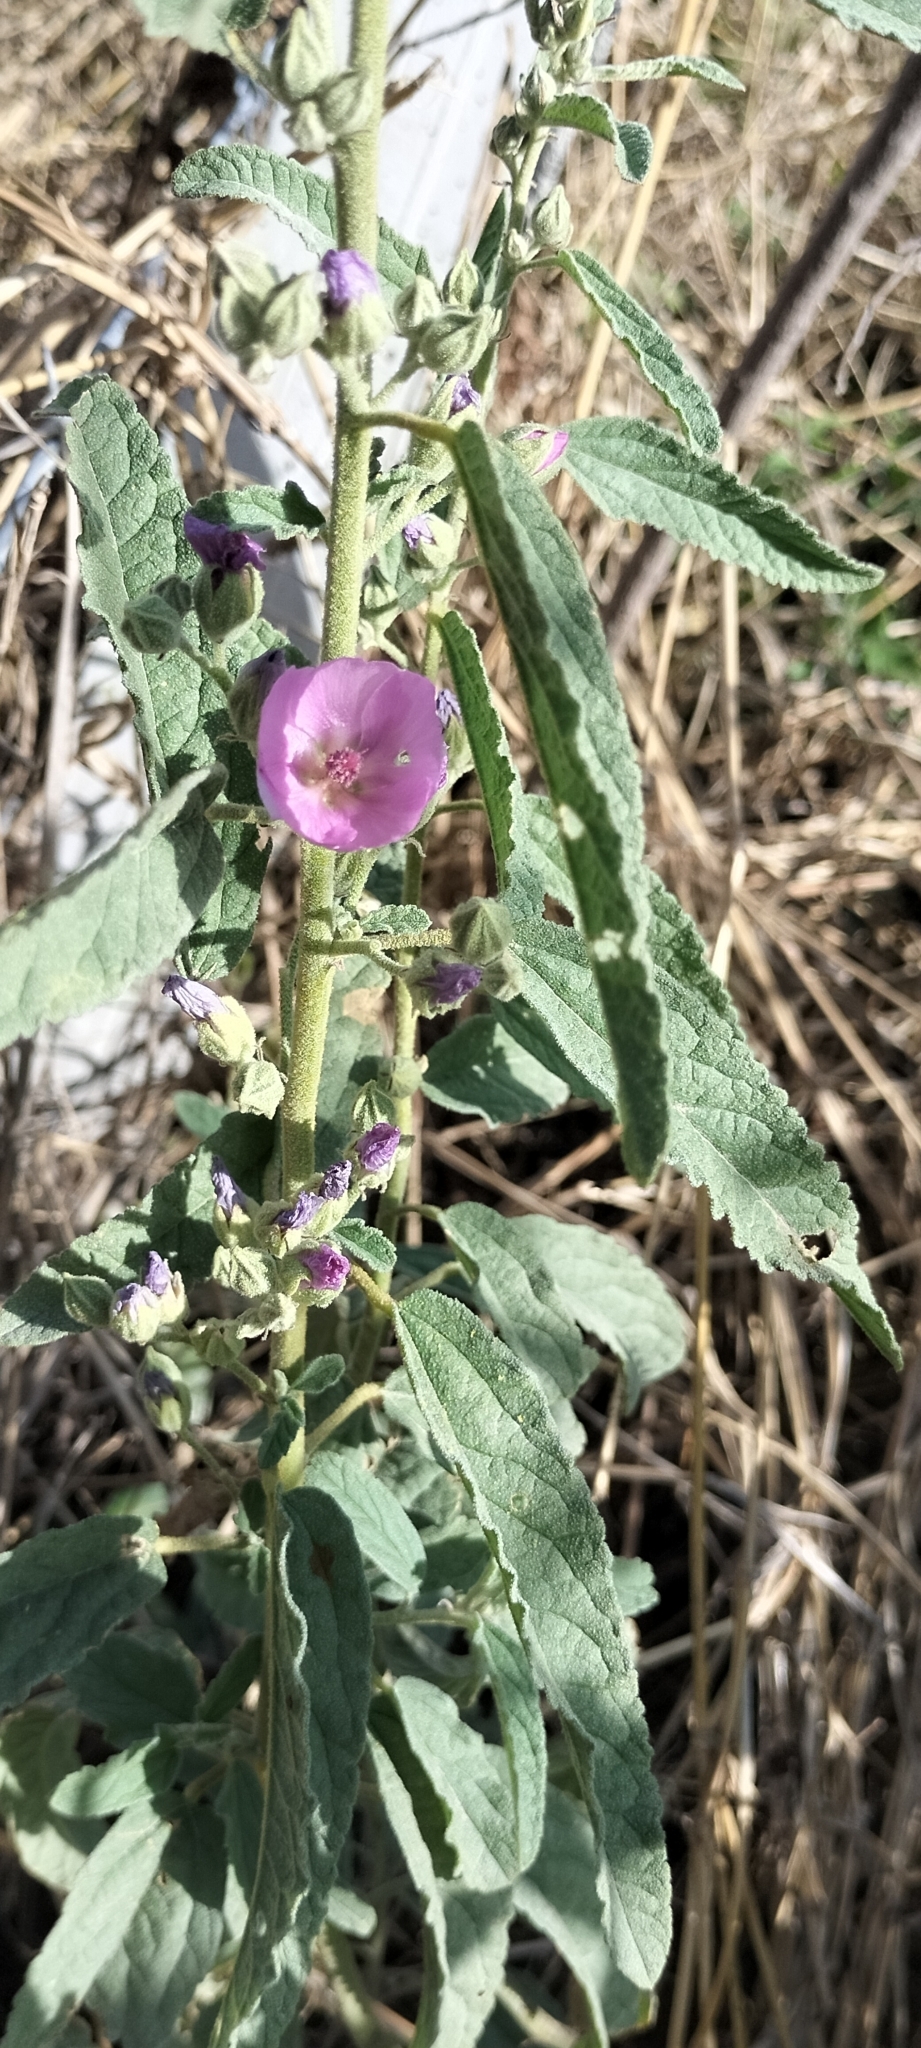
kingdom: Plantae
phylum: Tracheophyta
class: Magnoliopsida
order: Malvales
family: Malvaceae
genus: Sphaeralcea
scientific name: Sphaeralcea angustifolia
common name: Copper globe-mallow
